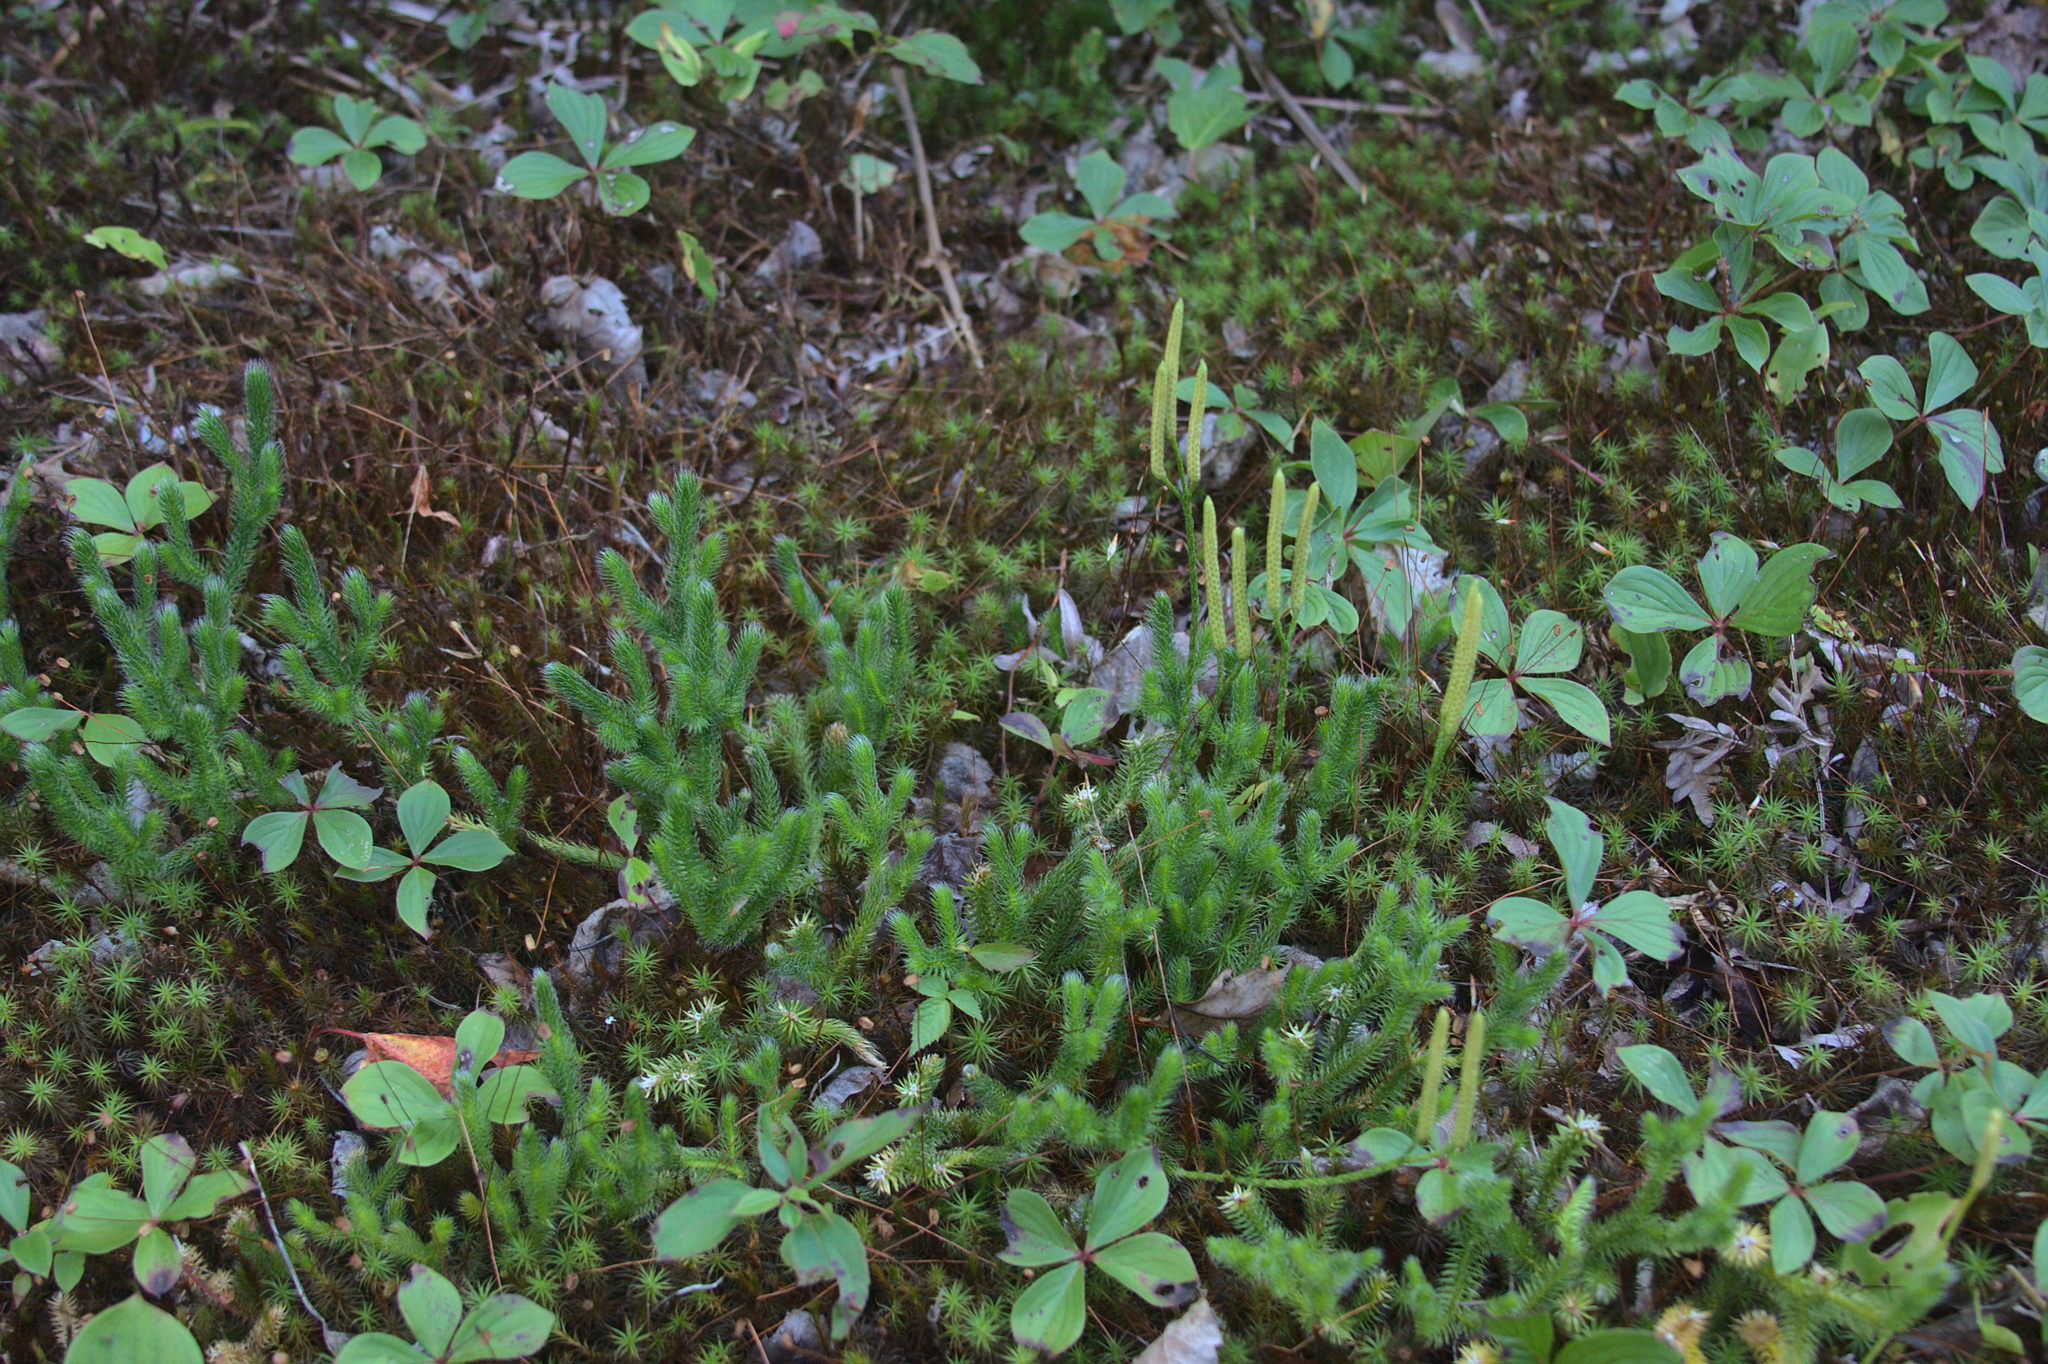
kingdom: Plantae
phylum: Tracheophyta
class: Magnoliopsida
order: Cornales
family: Cornaceae
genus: Cornus
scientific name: Cornus canadensis
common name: Creeping dogwood
